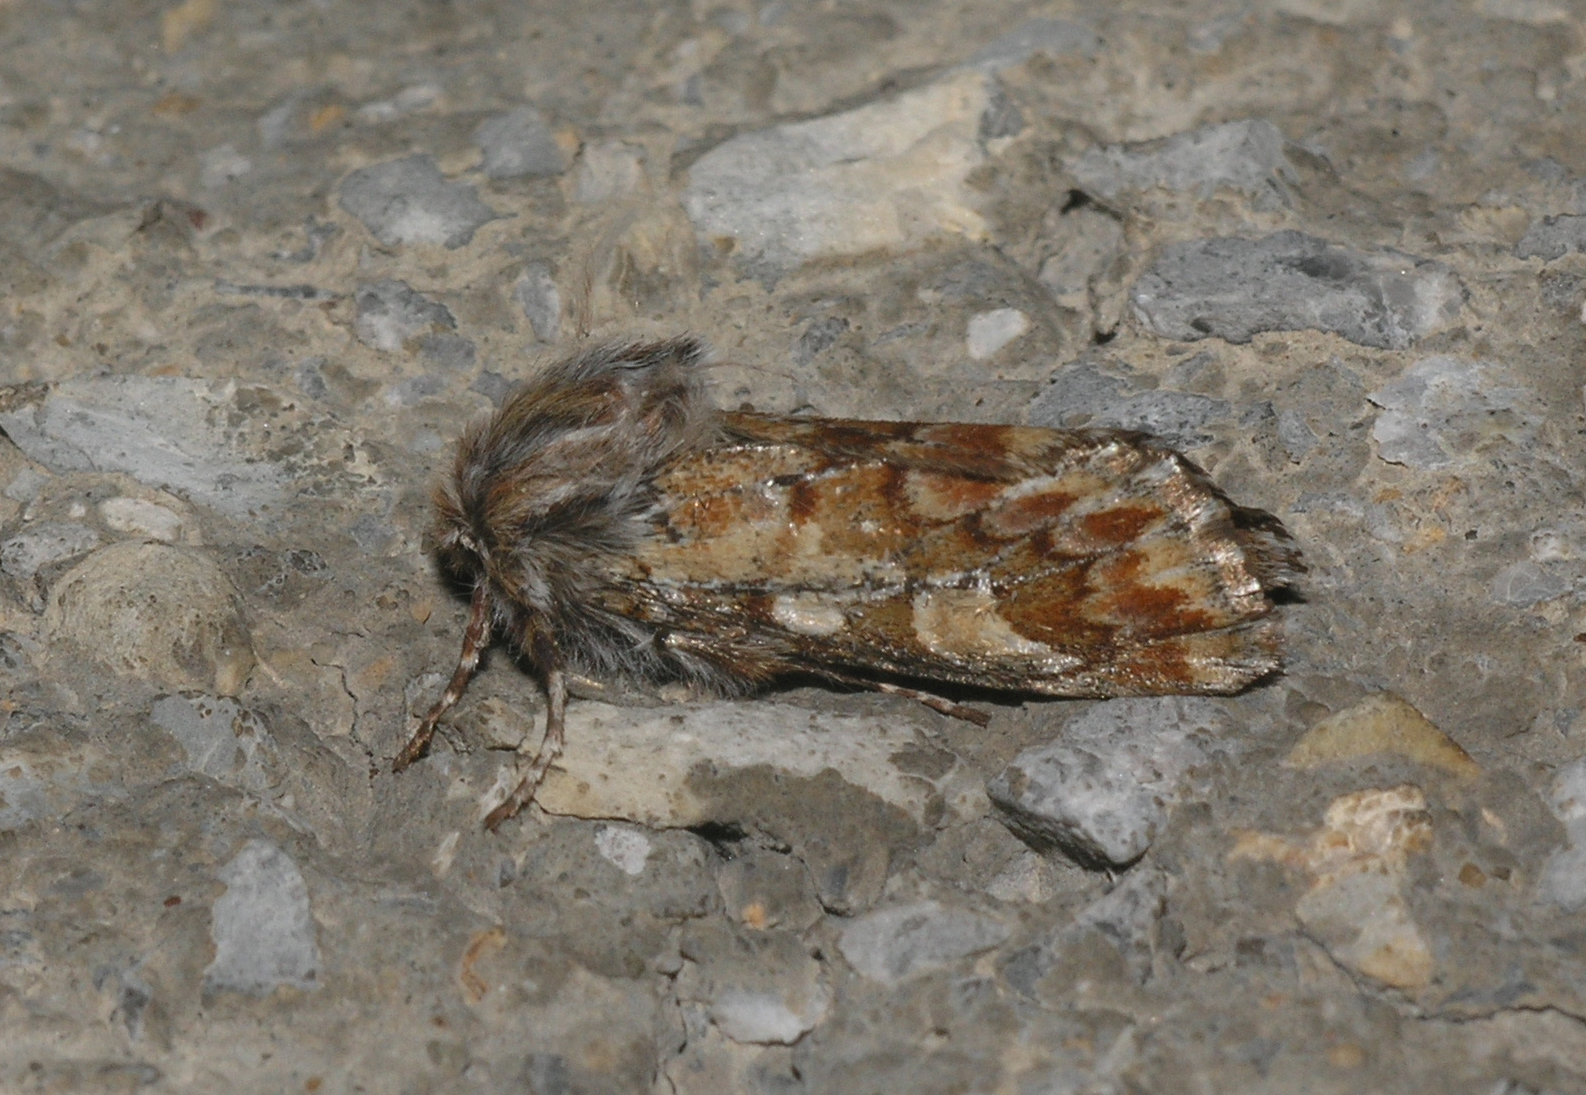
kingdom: Animalia
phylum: Arthropoda
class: Insecta
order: Lepidoptera
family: Noctuidae
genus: Panolis
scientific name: Panolis flammea
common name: Pine beauty
